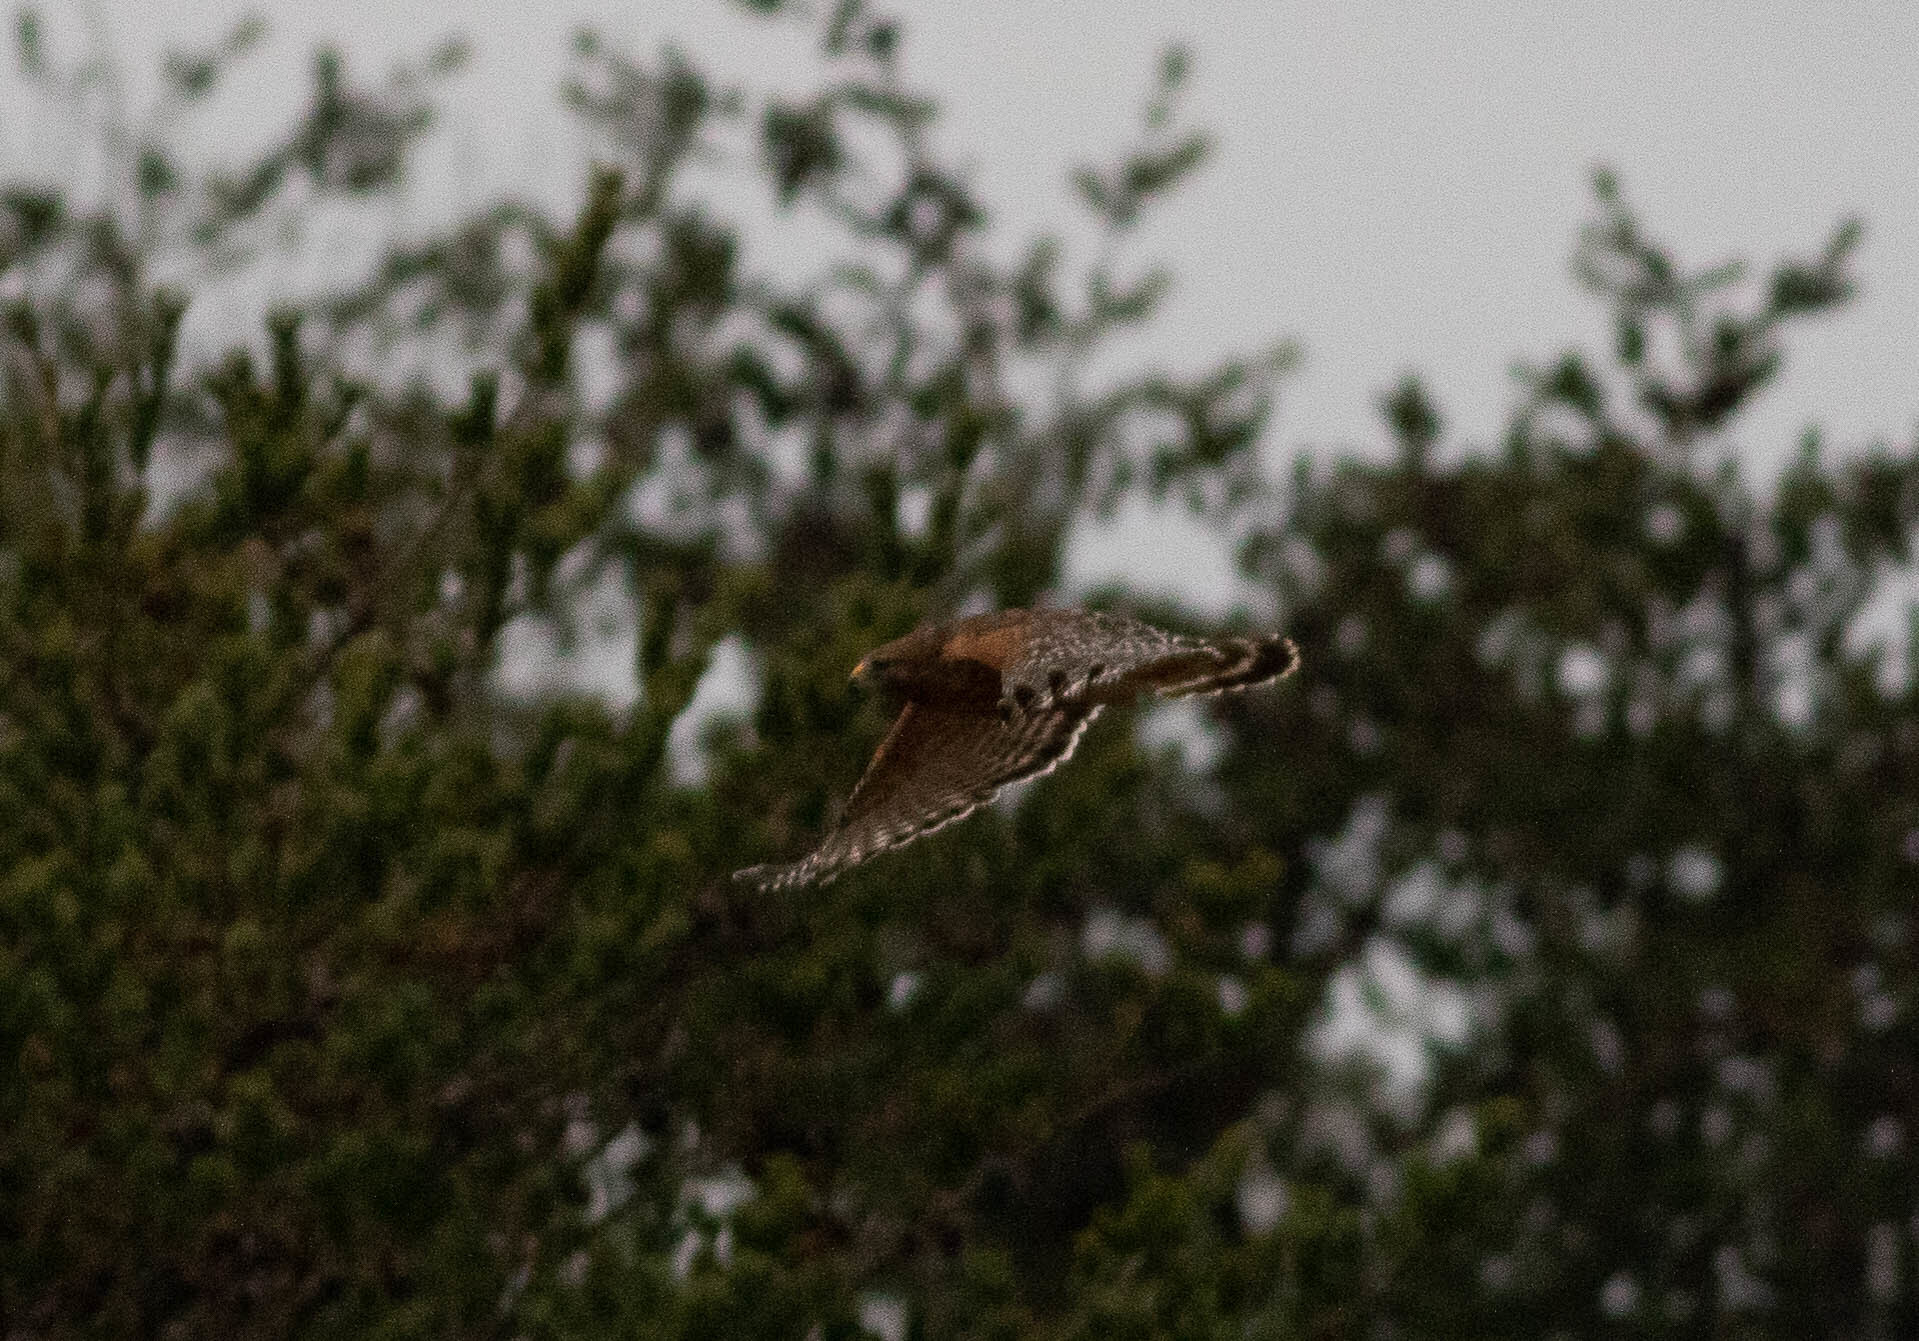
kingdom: Animalia
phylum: Chordata
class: Aves
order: Accipitriformes
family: Accipitridae
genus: Buteo
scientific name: Buteo lineatus
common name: Red-shouldered hawk
